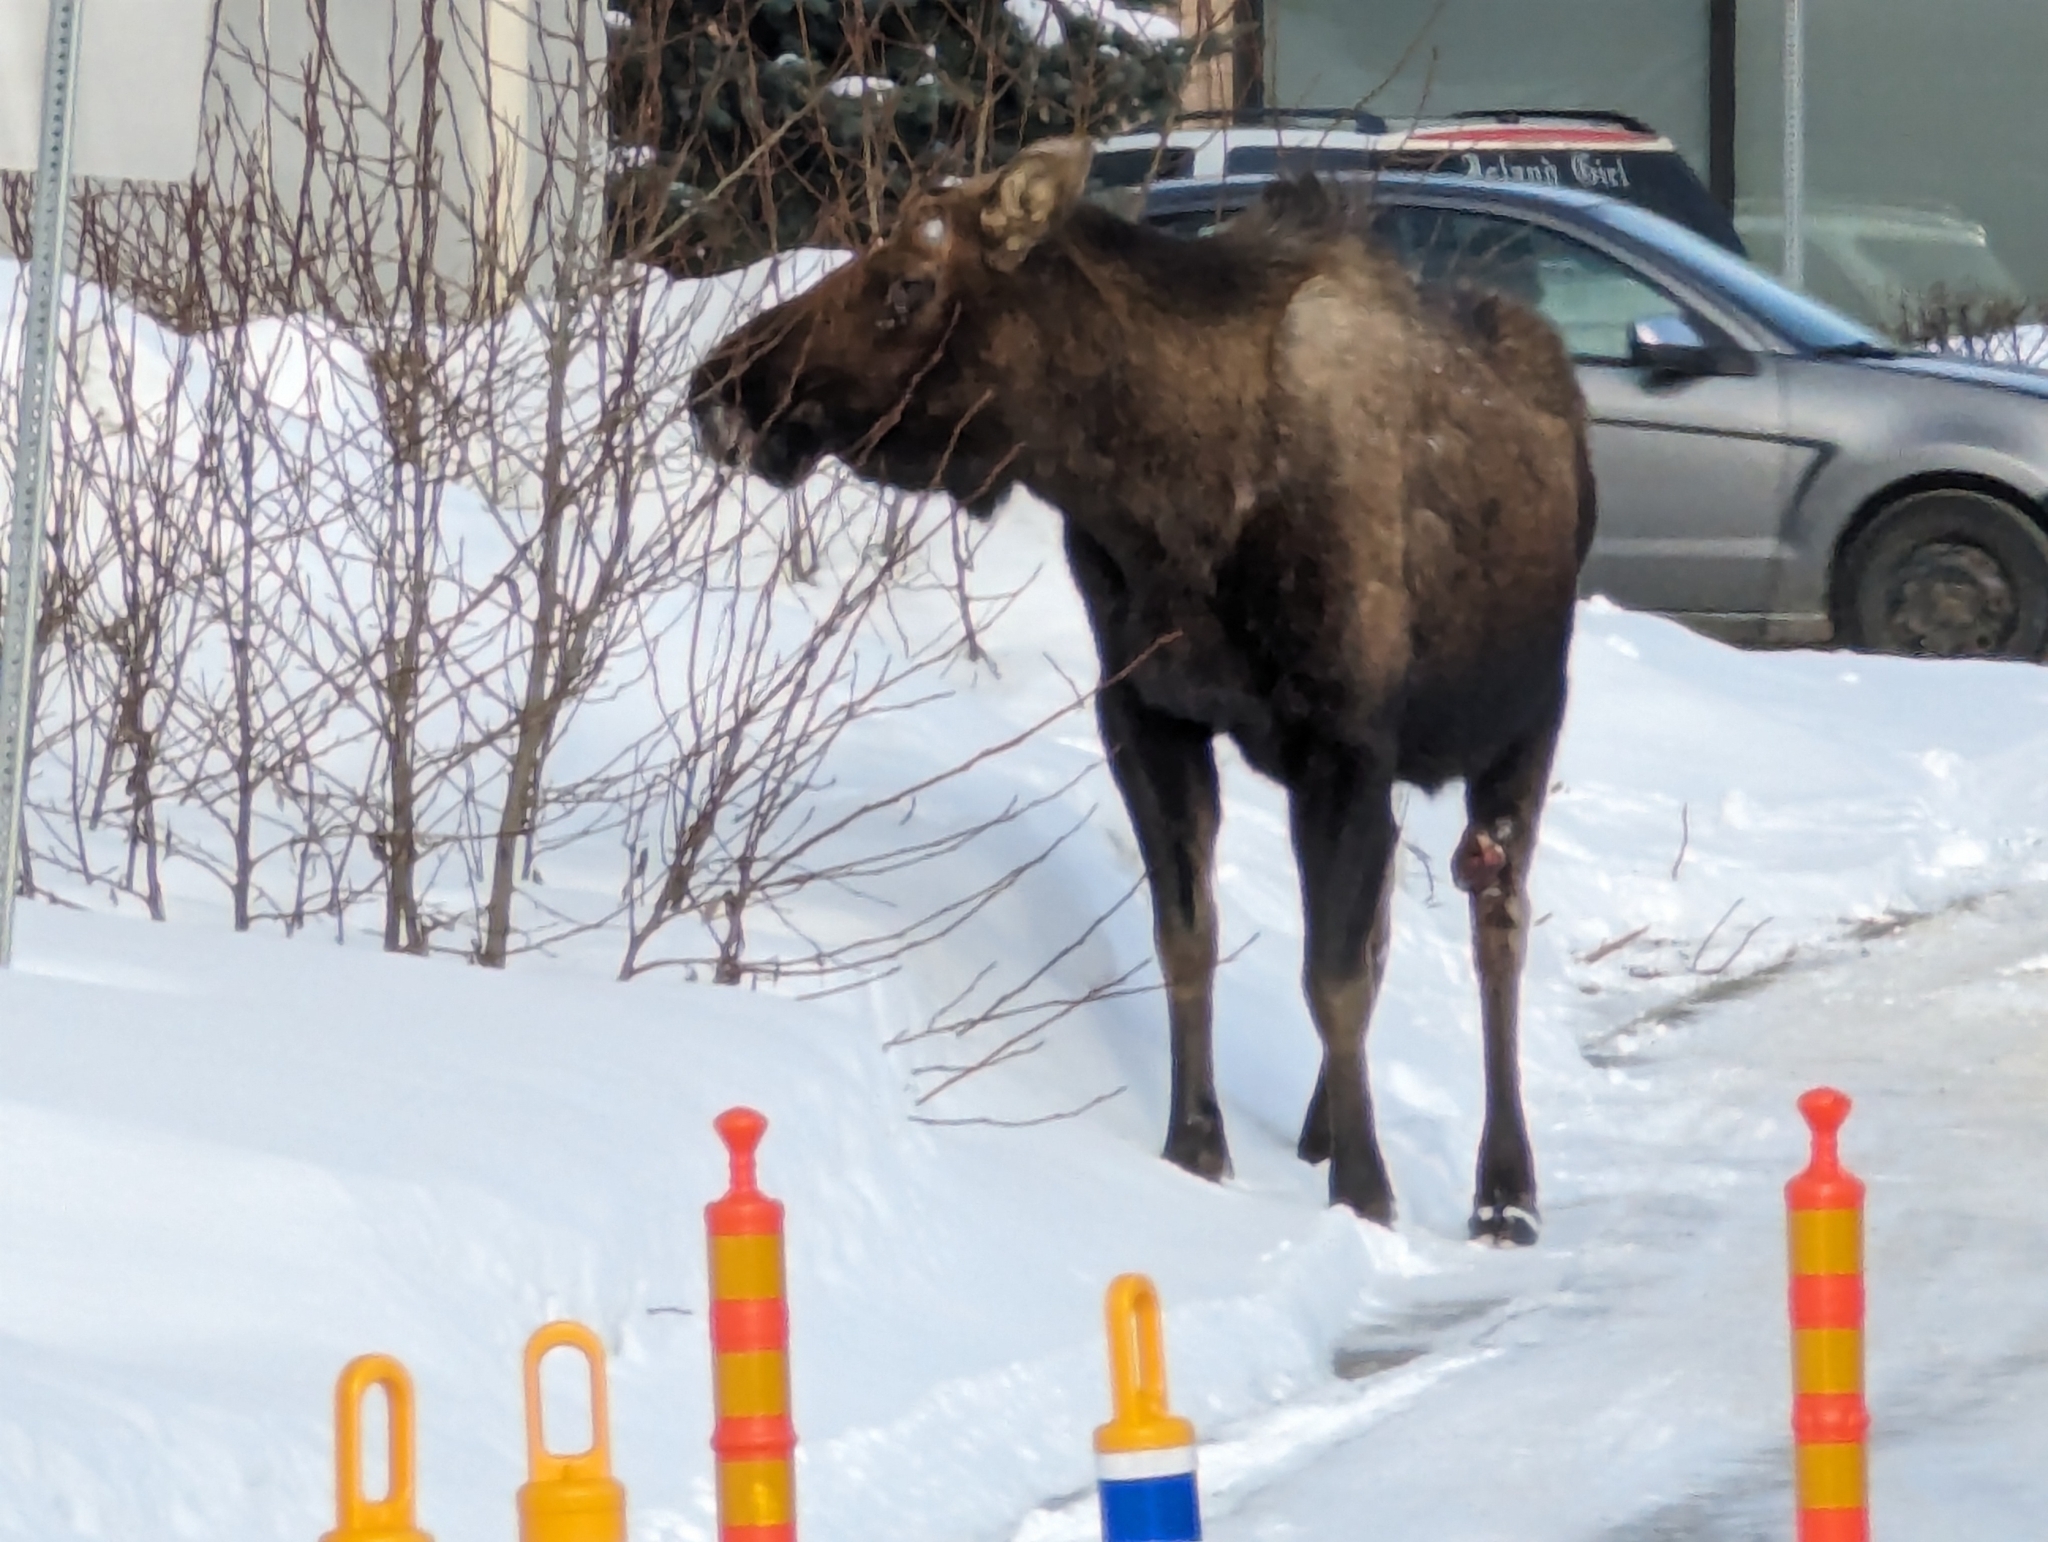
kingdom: Animalia
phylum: Chordata
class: Mammalia
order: Artiodactyla
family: Cervidae
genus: Alces
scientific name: Alces alces
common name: Moose
